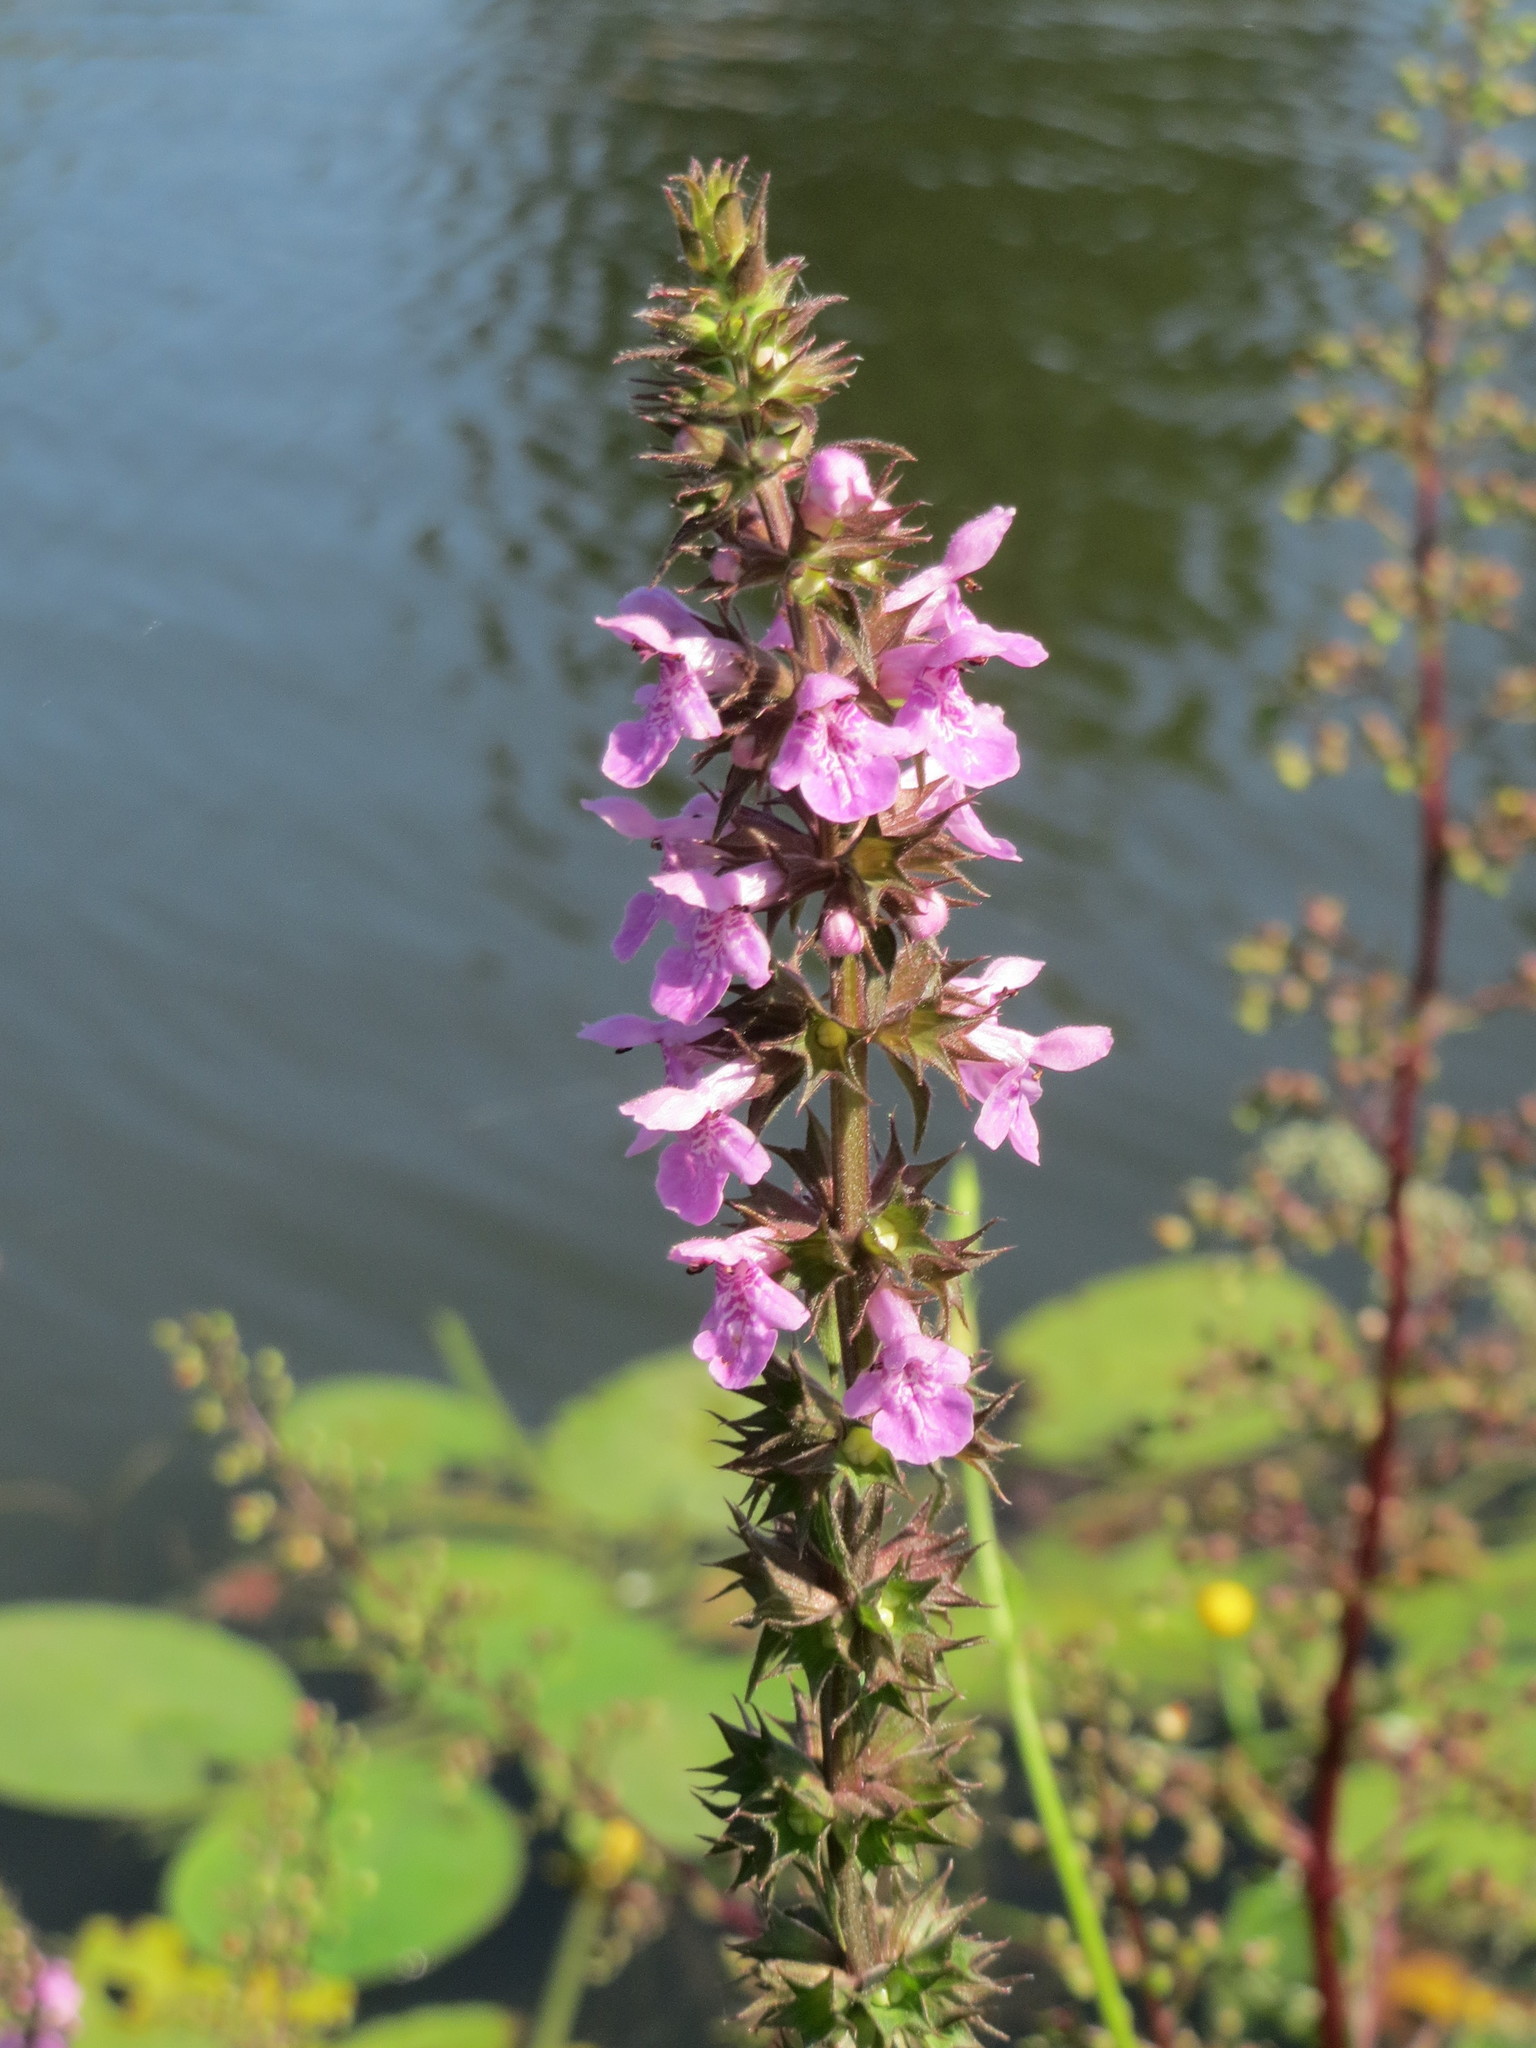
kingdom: Plantae
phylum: Tracheophyta
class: Magnoliopsida
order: Lamiales
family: Lamiaceae
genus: Stachys
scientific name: Stachys palustris
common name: Marsh woundwort
